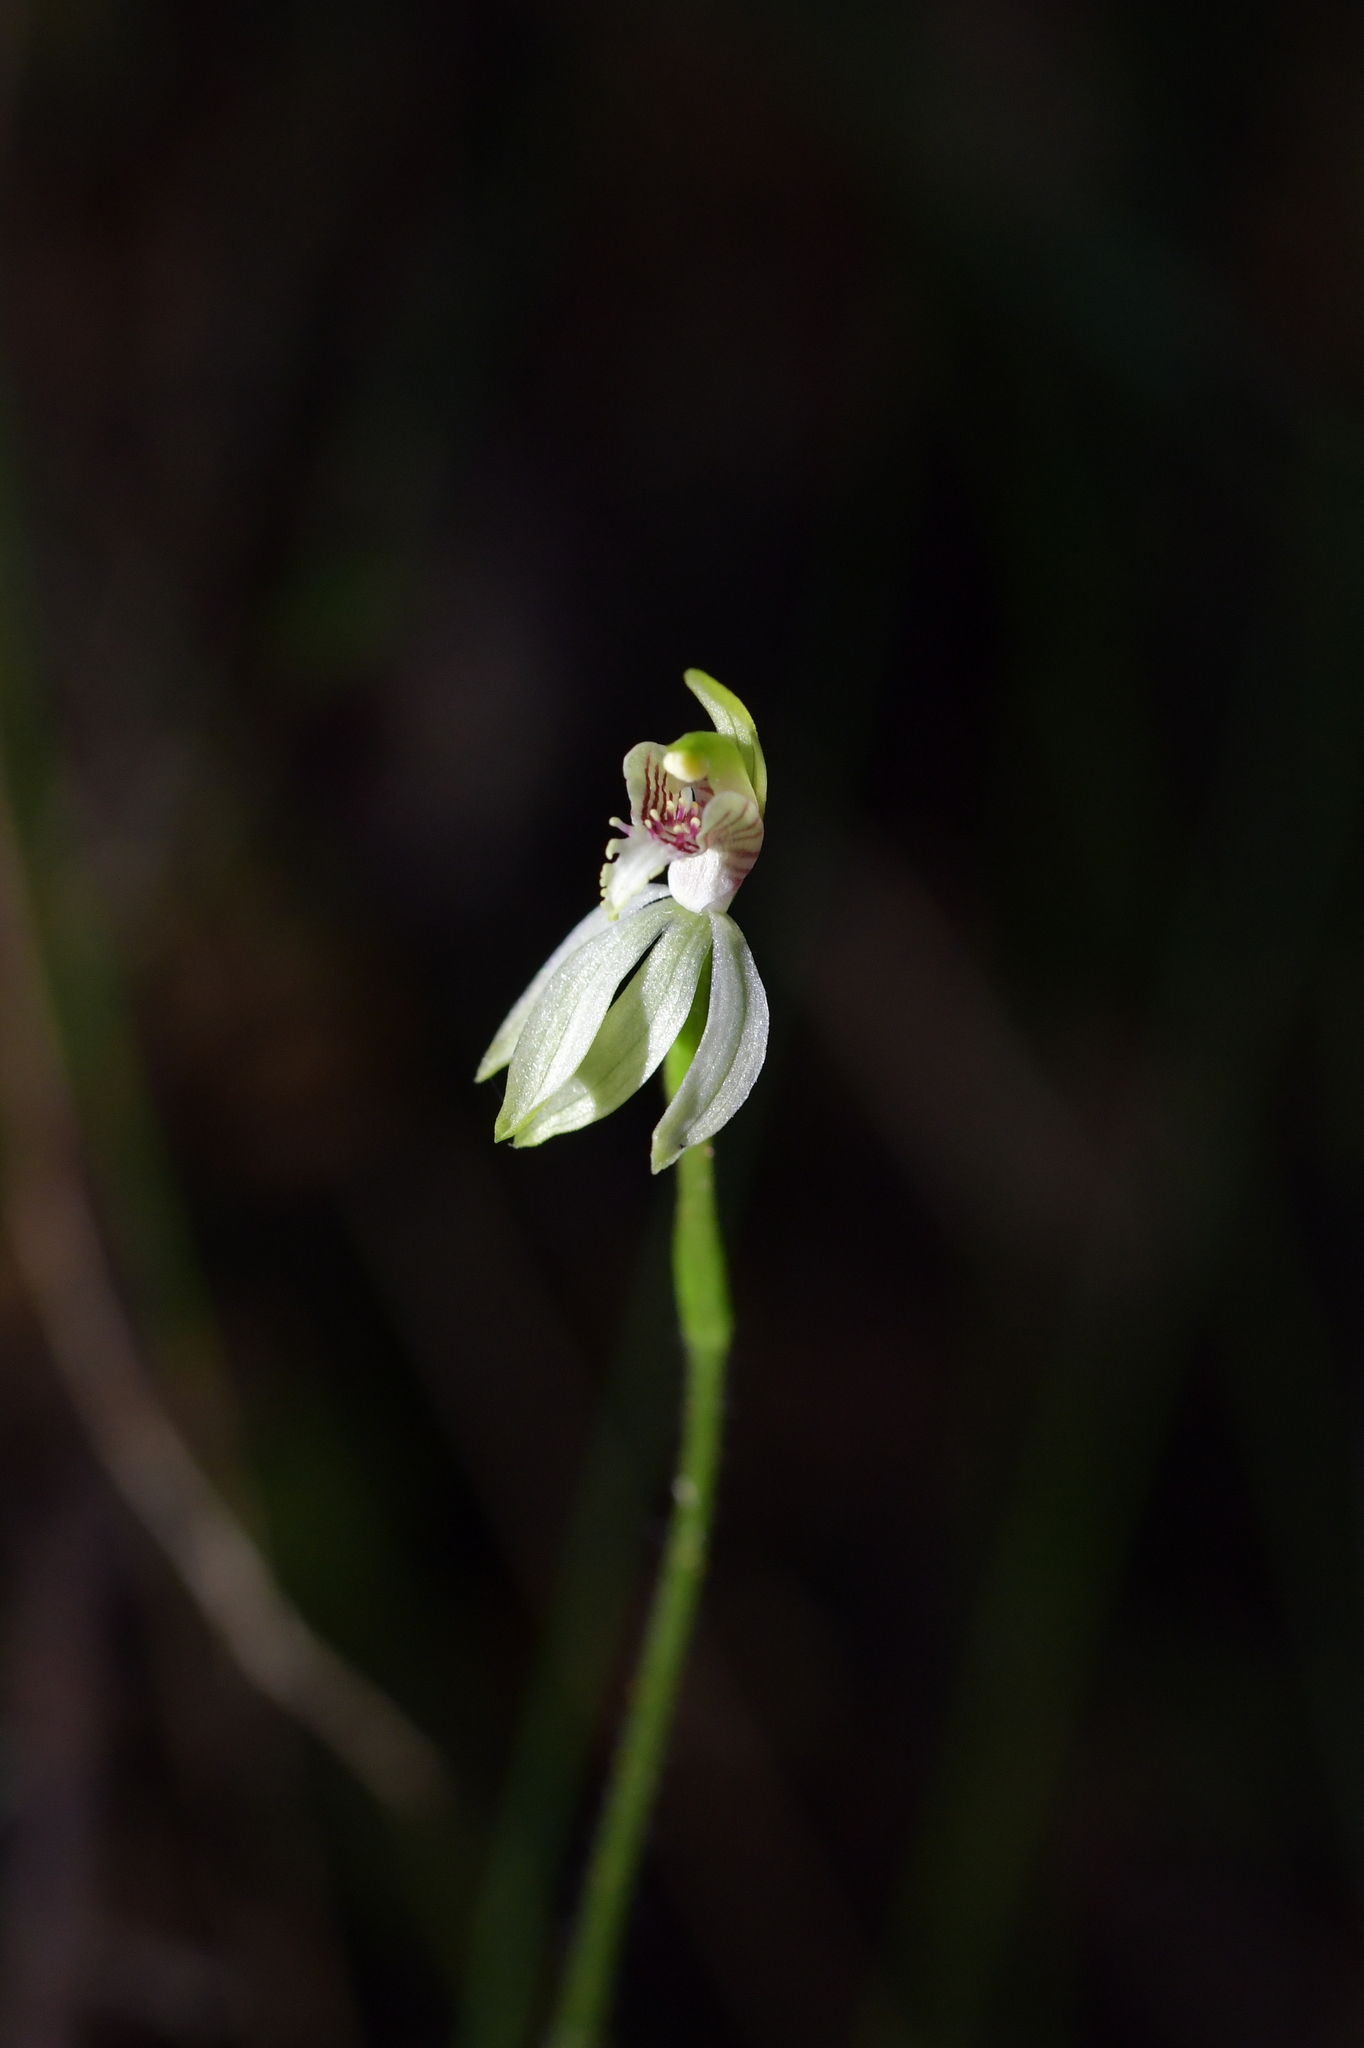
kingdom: Plantae
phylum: Tracheophyta
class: Liliopsida
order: Asparagales
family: Orchidaceae
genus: Caladenia
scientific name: Caladenia chlorostyla
